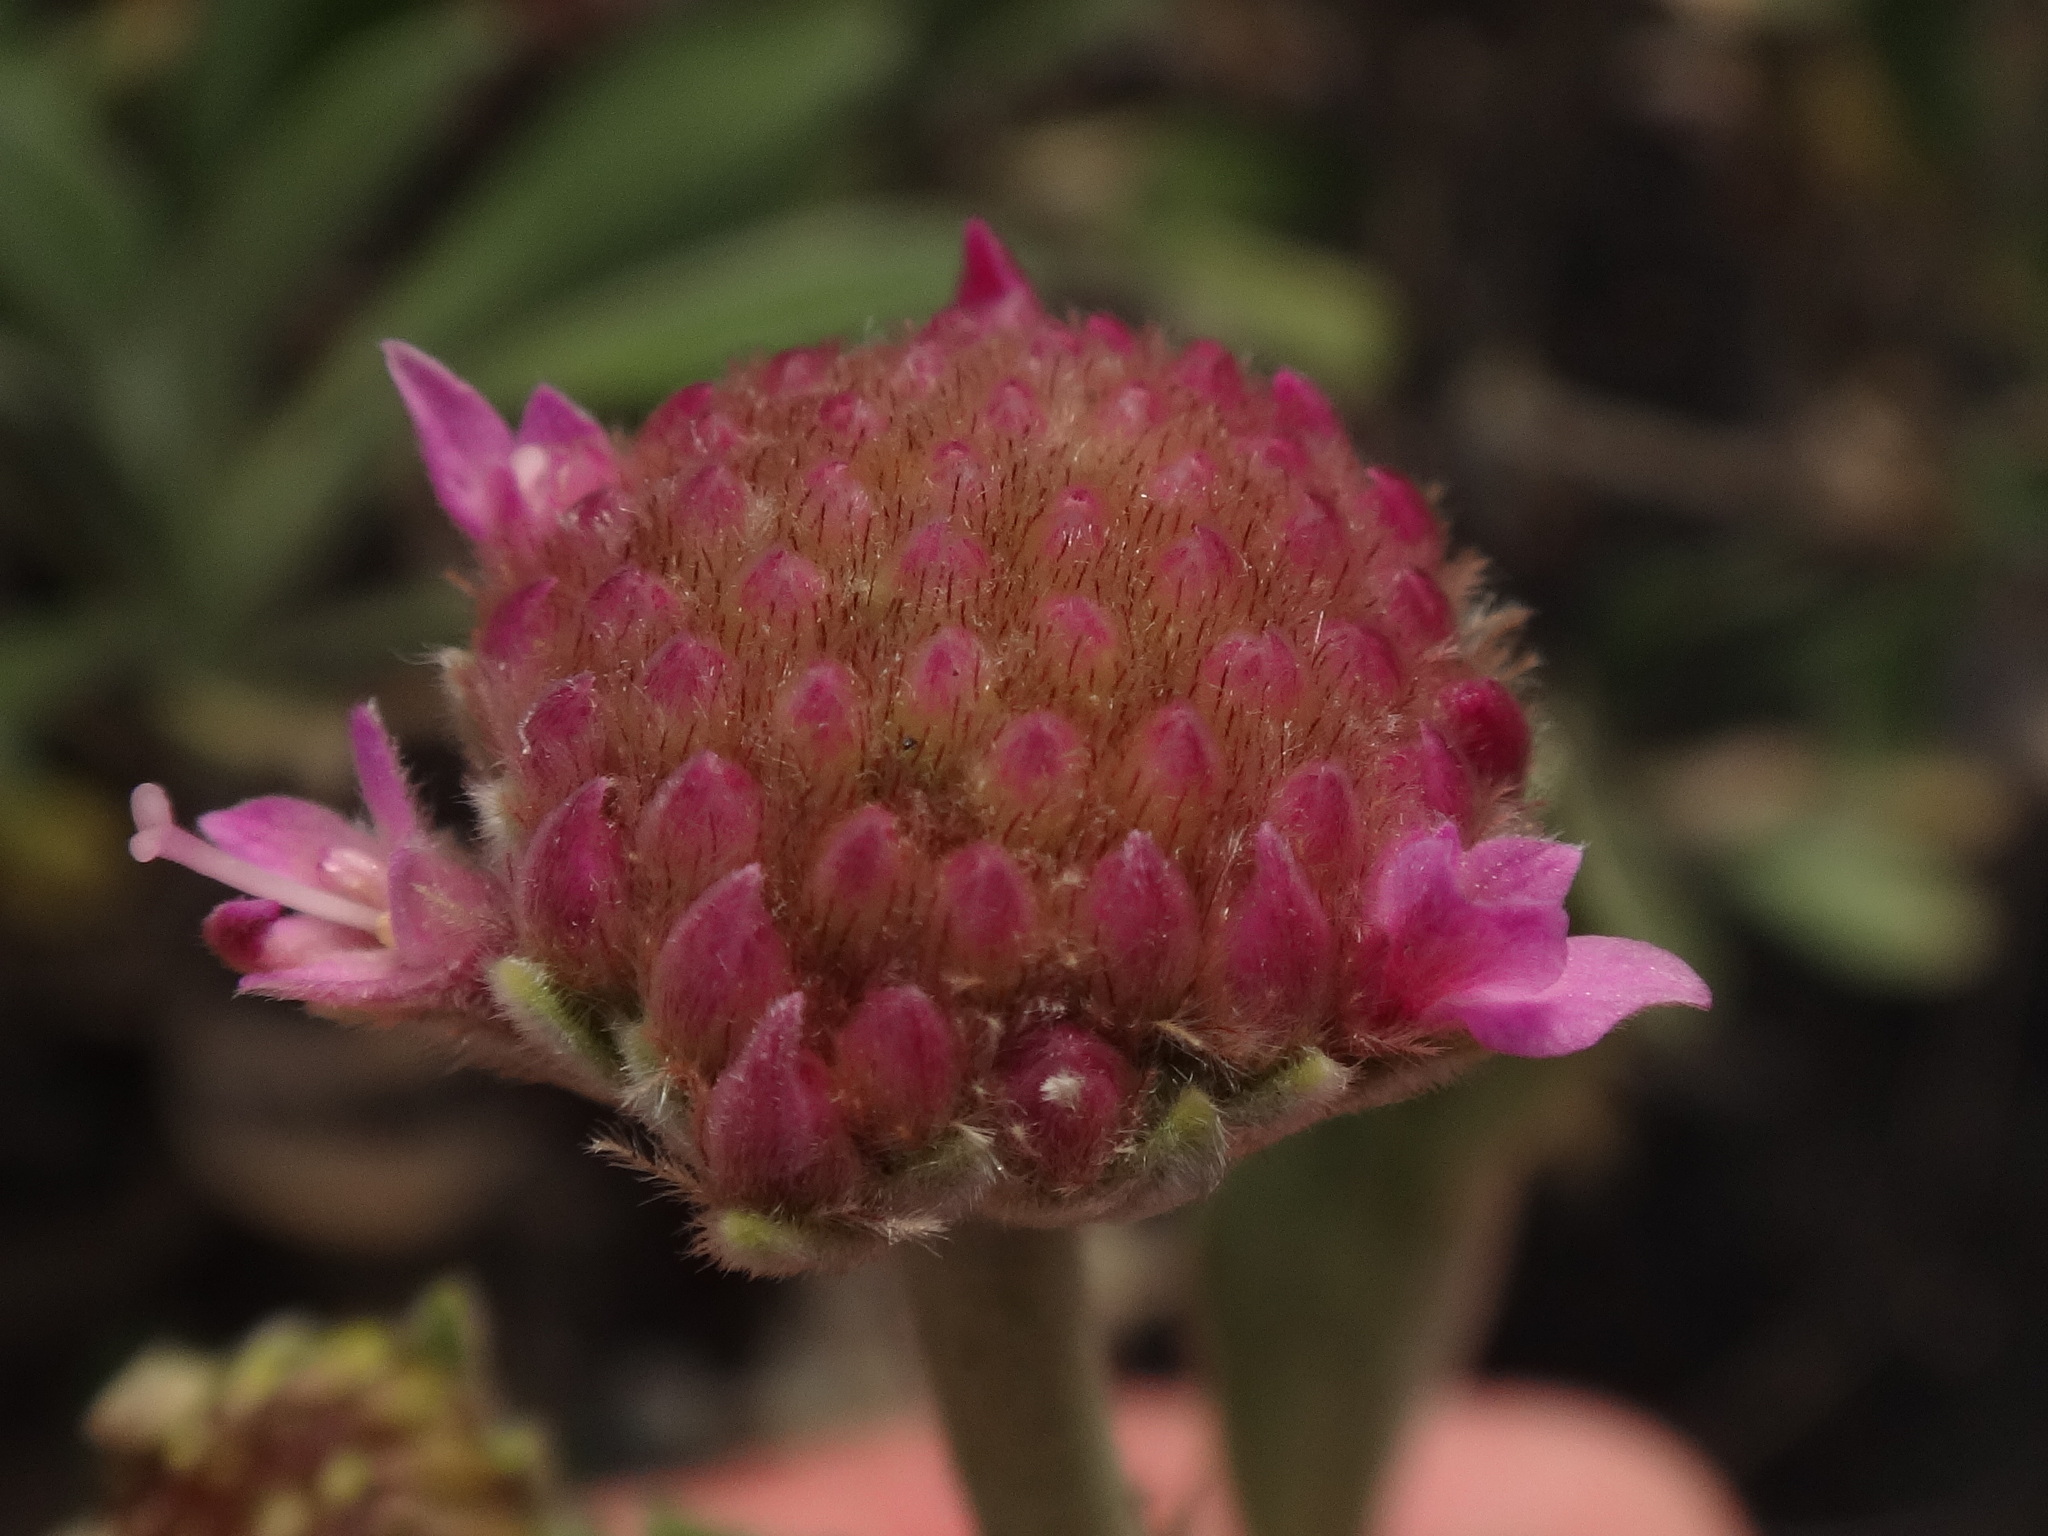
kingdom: Plantae
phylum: Tracheophyta
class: Magnoliopsida
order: Dipsacales
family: Caprifoliaceae
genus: Pterocephalus
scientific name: Pterocephalus porphyranthus
